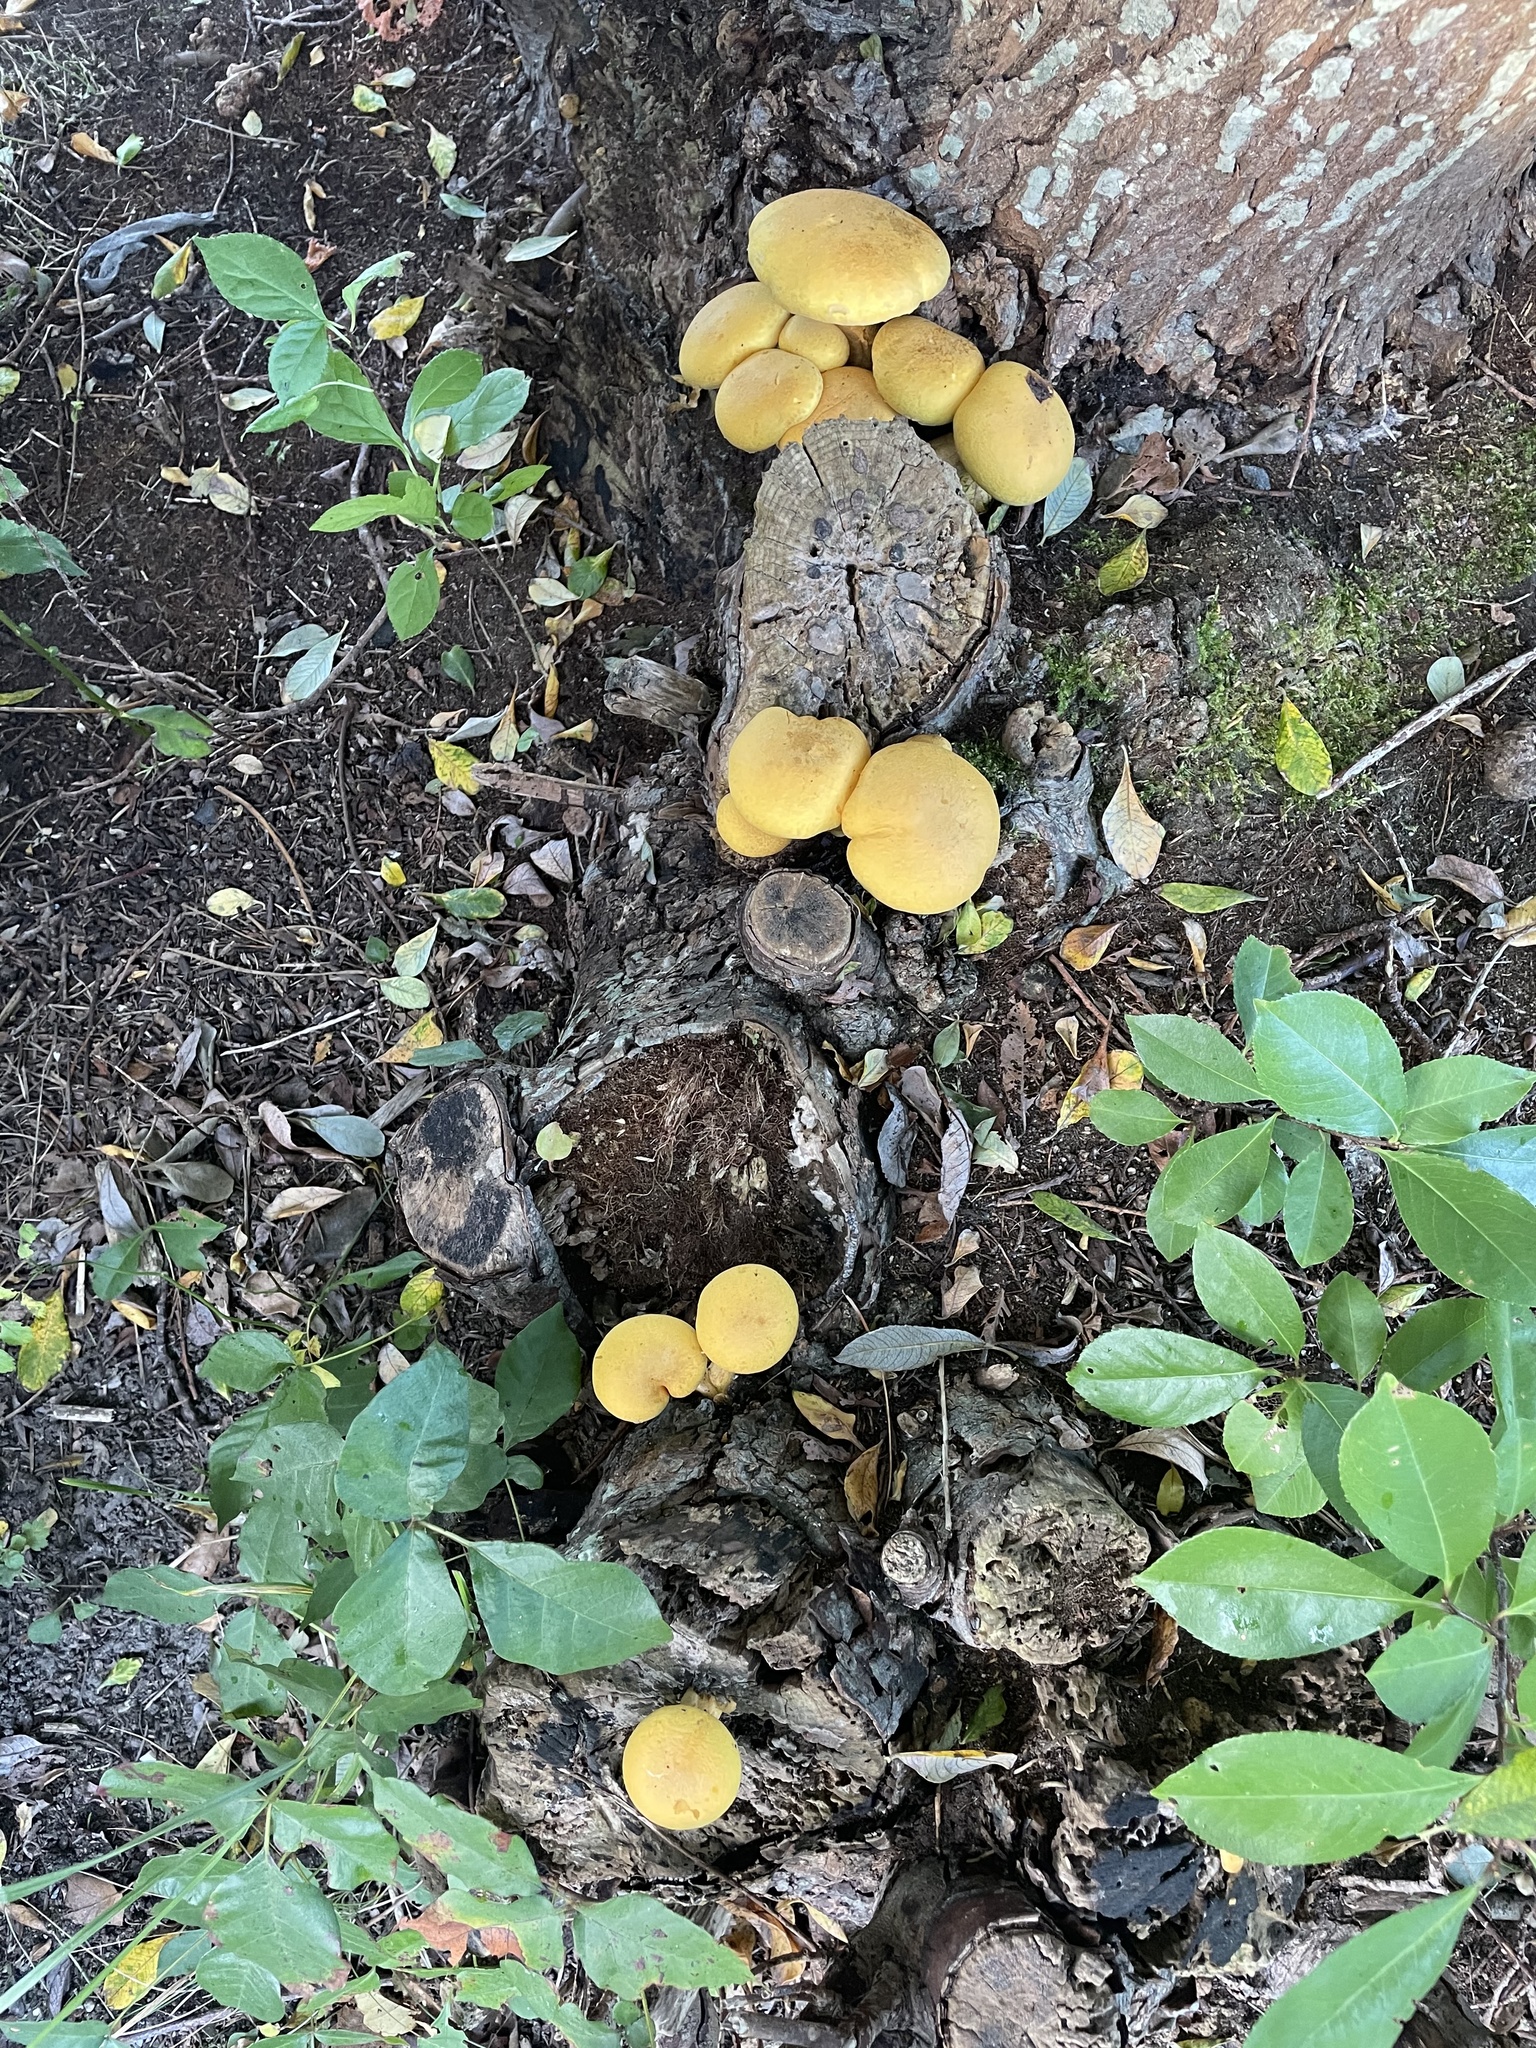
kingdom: Fungi
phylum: Basidiomycota
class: Agaricomycetes
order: Agaricales
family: Hymenogastraceae
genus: Gymnopilus
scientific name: Gymnopilus luteus
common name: Yellow gymnopilus
